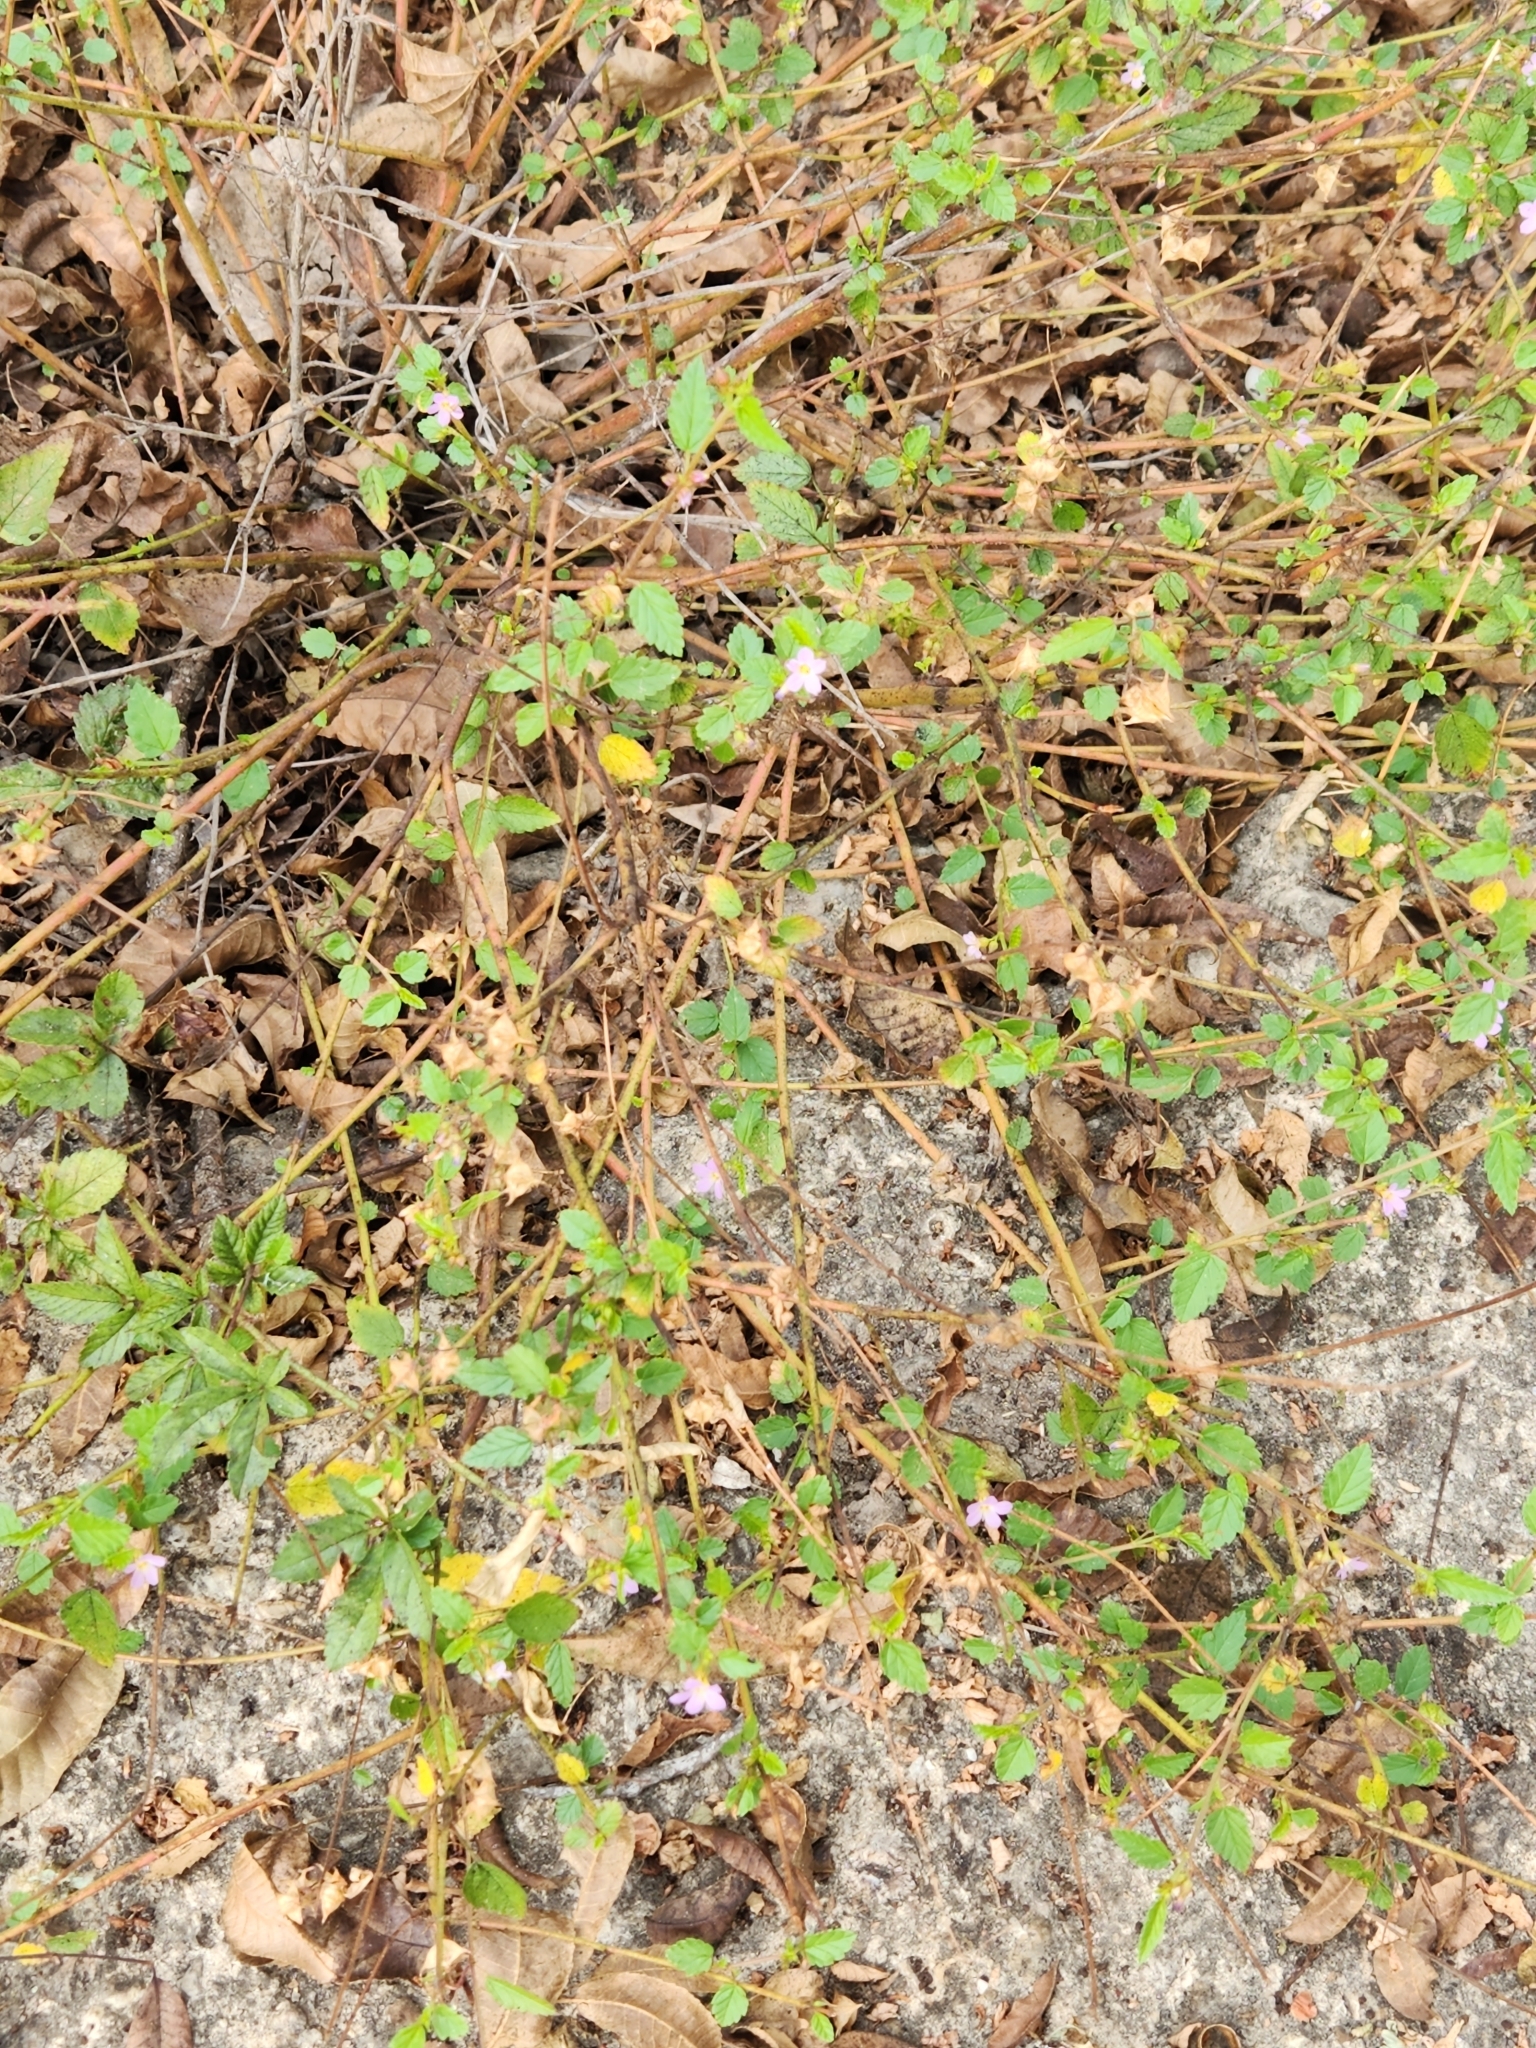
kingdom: Plantae
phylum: Tracheophyta
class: Magnoliopsida
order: Malvales
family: Malvaceae
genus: Melochia
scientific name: Melochia pyramidata
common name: Pyramidflower
